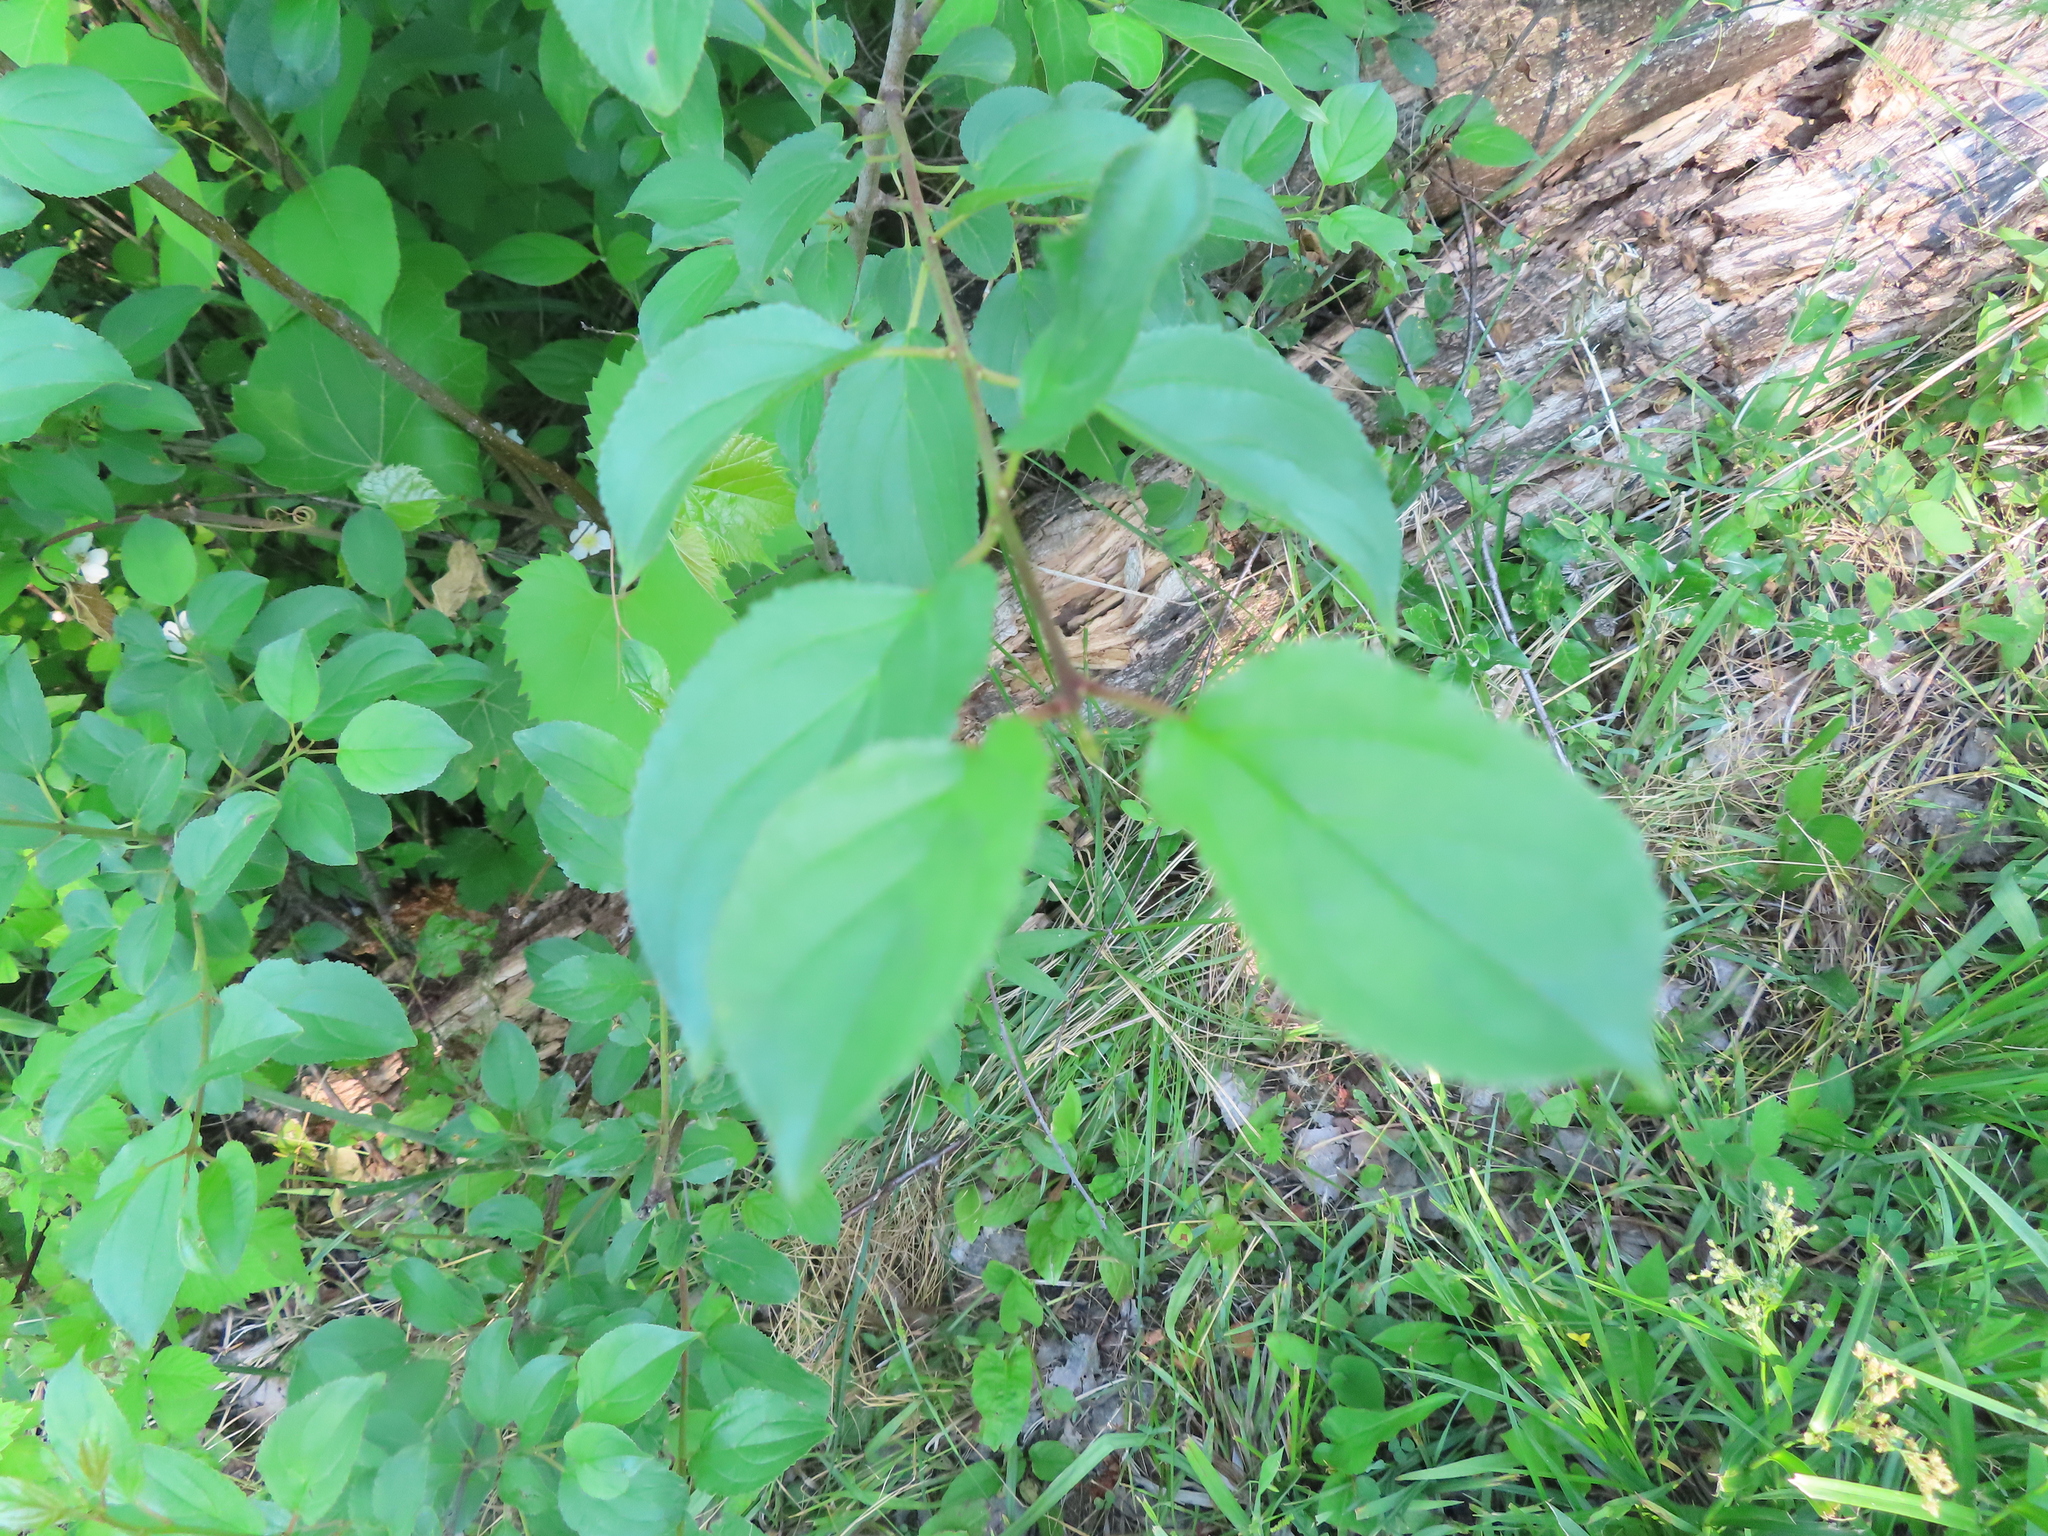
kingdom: Plantae
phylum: Tracheophyta
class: Magnoliopsida
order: Rosales
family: Rhamnaceae
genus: Rhamnus
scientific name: Rhamnus cathartica
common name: Common buckthorn
